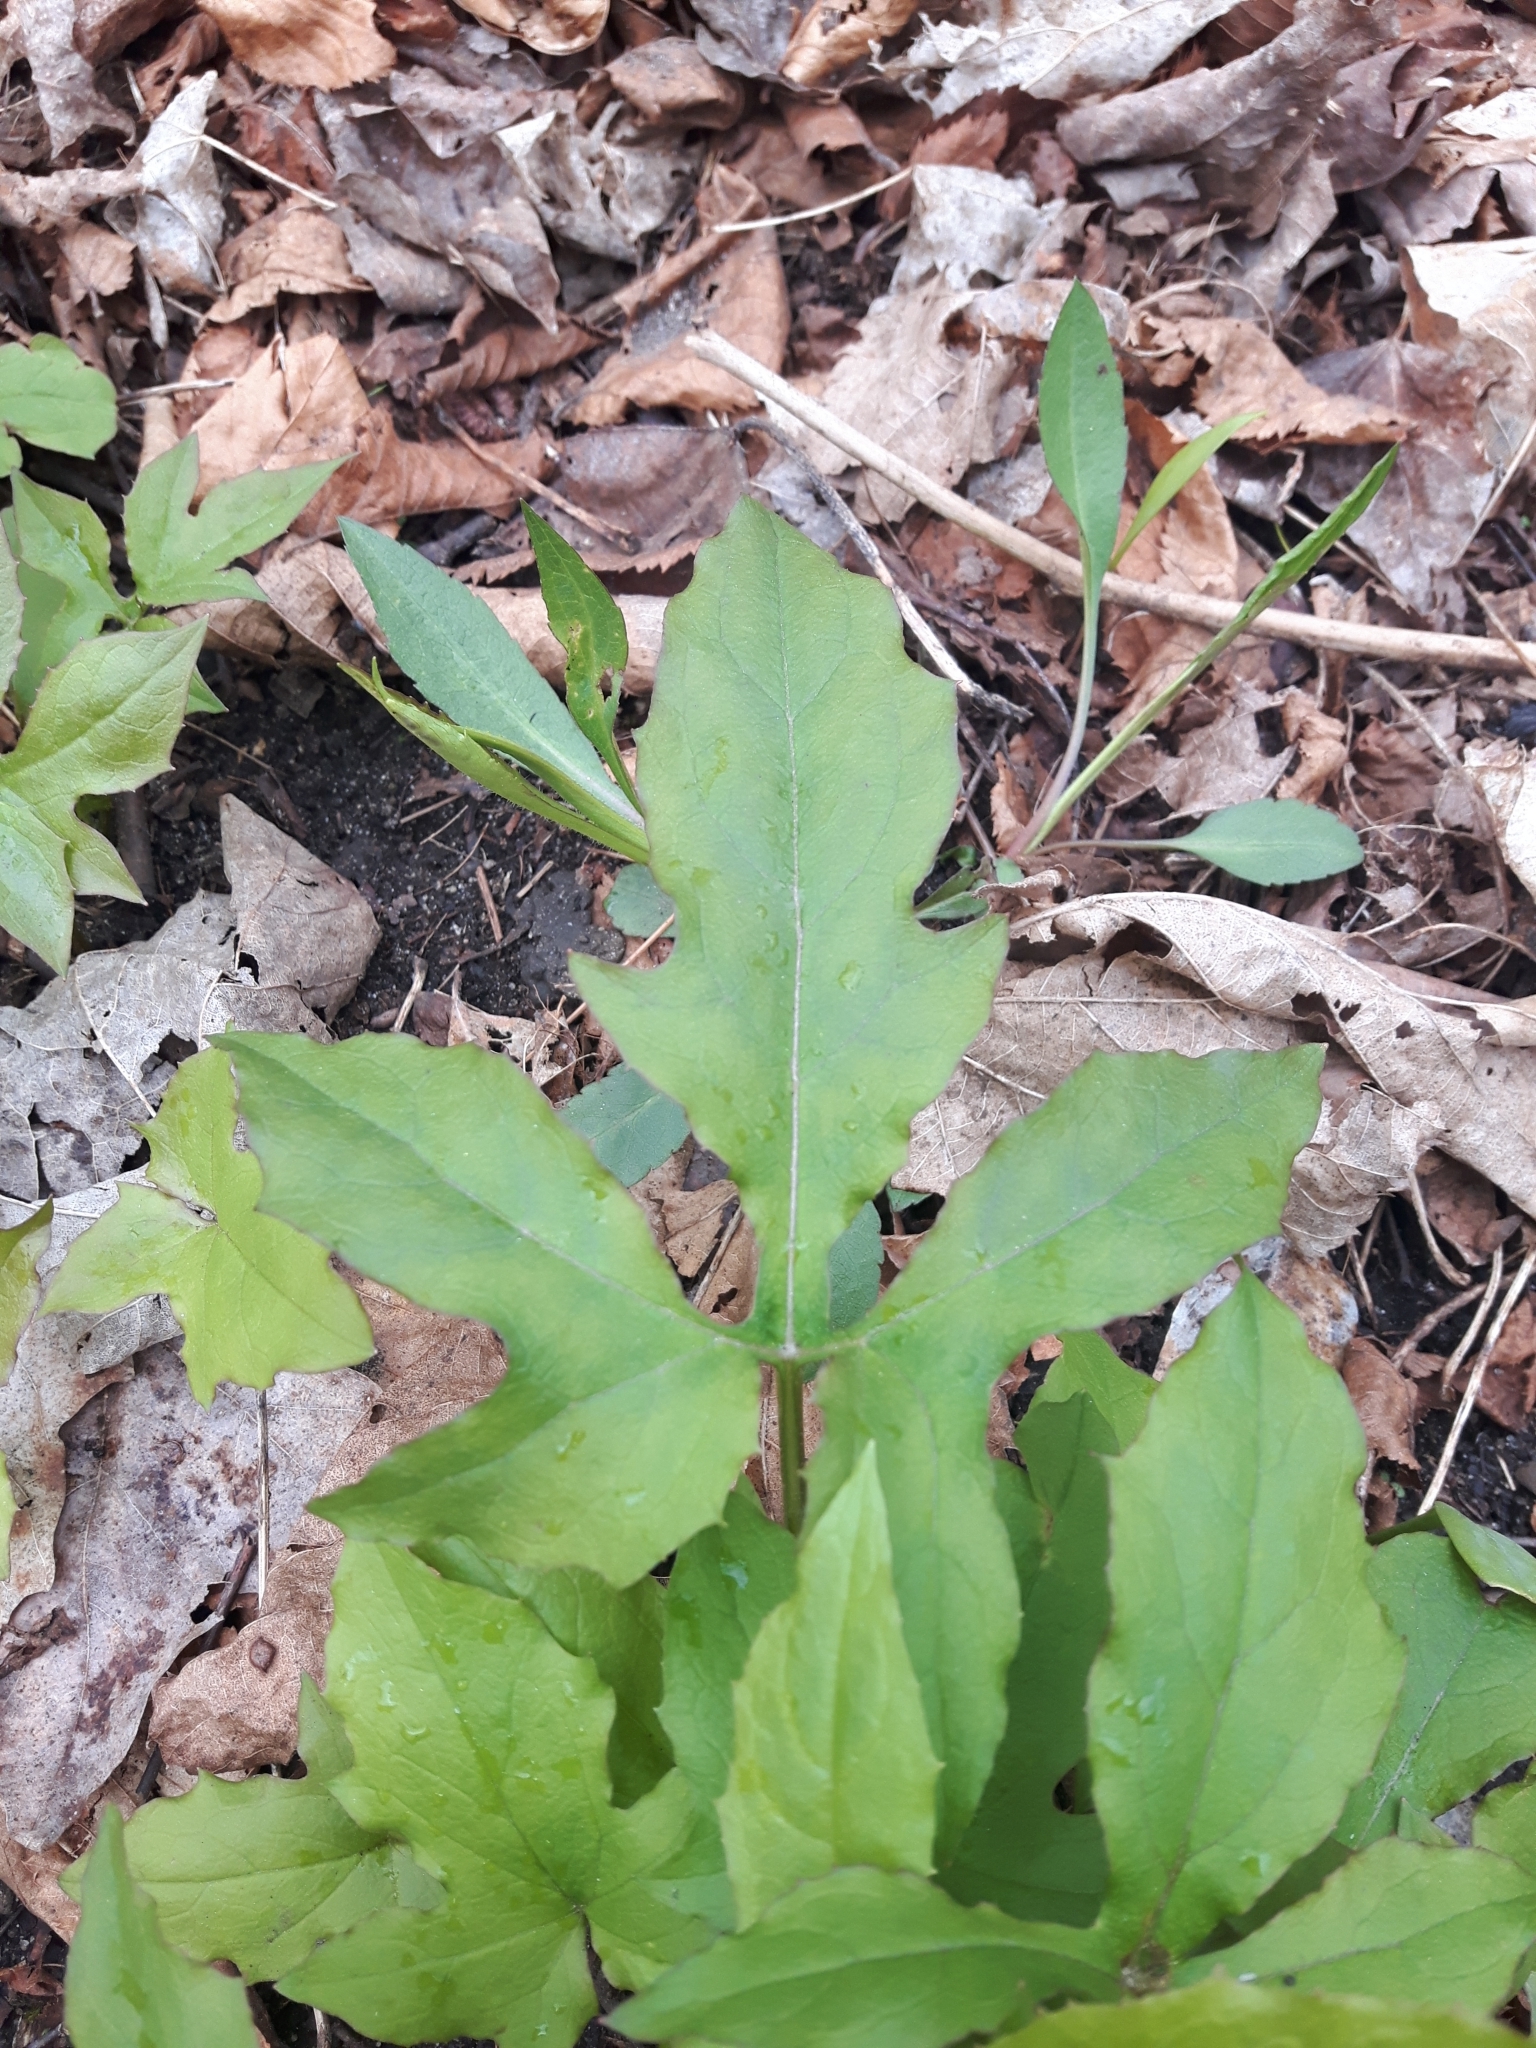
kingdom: Plantae
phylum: Tracheophyta
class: Magnoliopsida
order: Asterales
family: Asteraceae
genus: Nabalus
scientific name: Nabalus altissima
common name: Tall rattlesnakeroot
